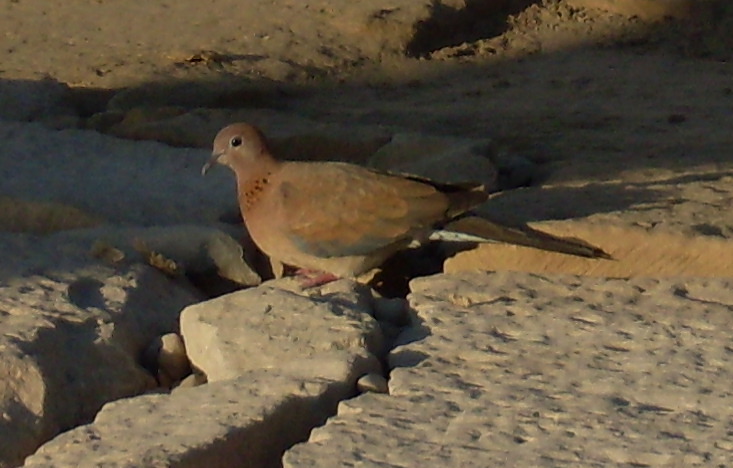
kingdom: Animalia
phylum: Chordata
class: Aves
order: Columbiformes
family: Columbidae
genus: Spilopelia
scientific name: Spilopelia senegalensis
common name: Laughing dove
